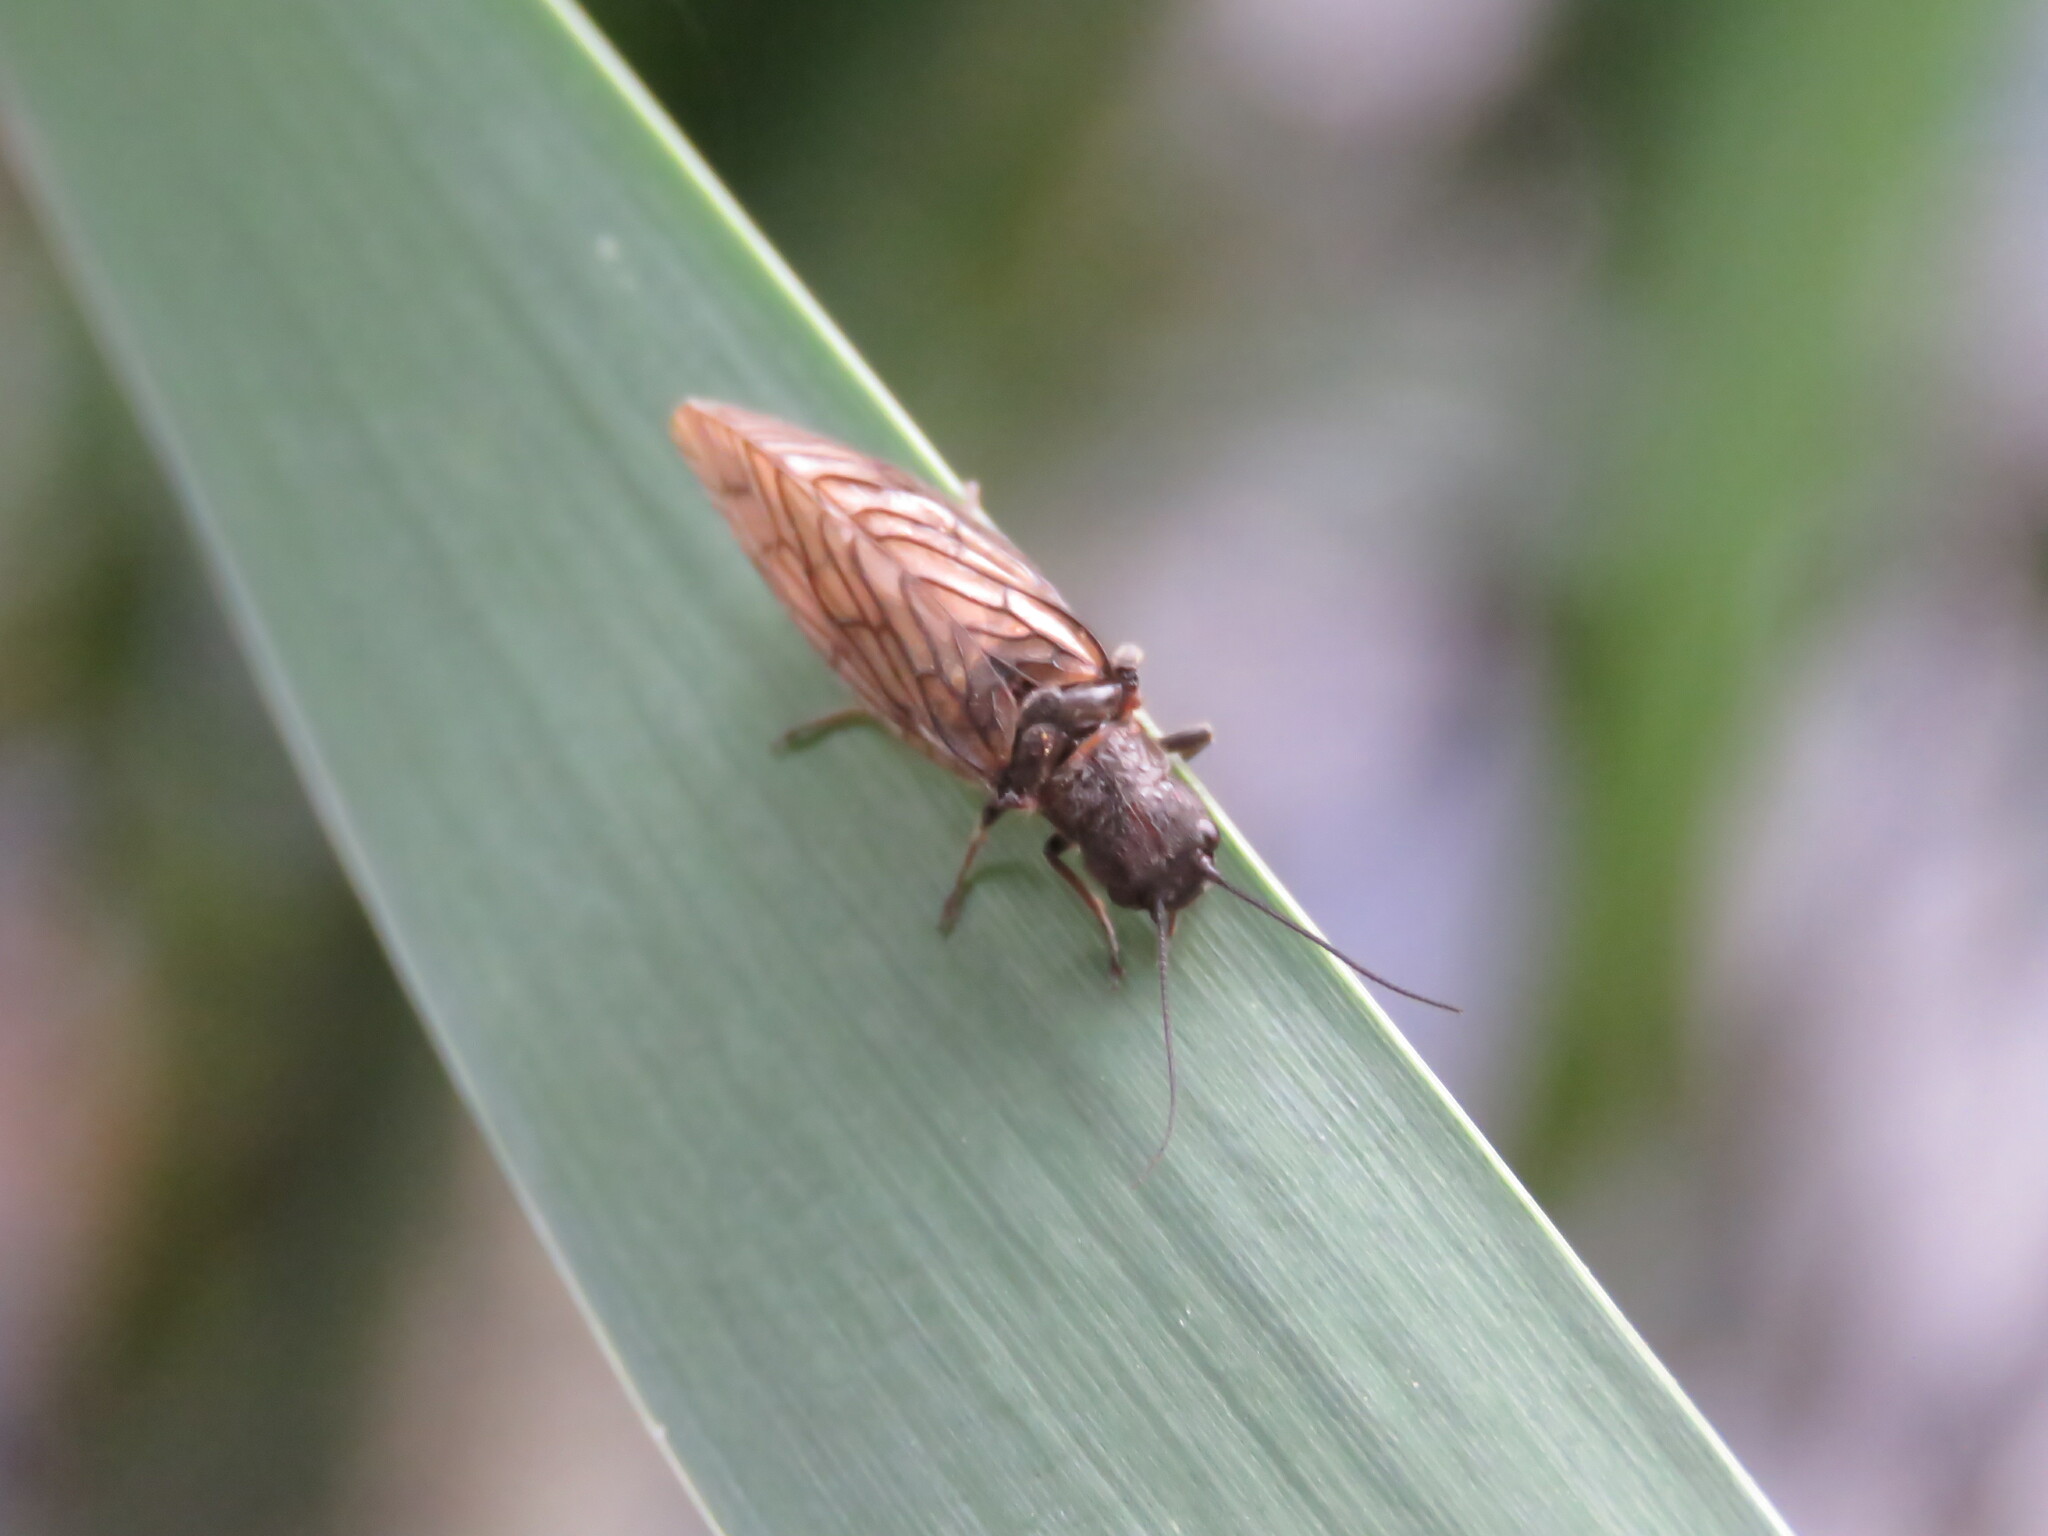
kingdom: Animalia
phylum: Arthropoda
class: Insecta
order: Megaloptera
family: Sialidae
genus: Sialis
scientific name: Sialis
